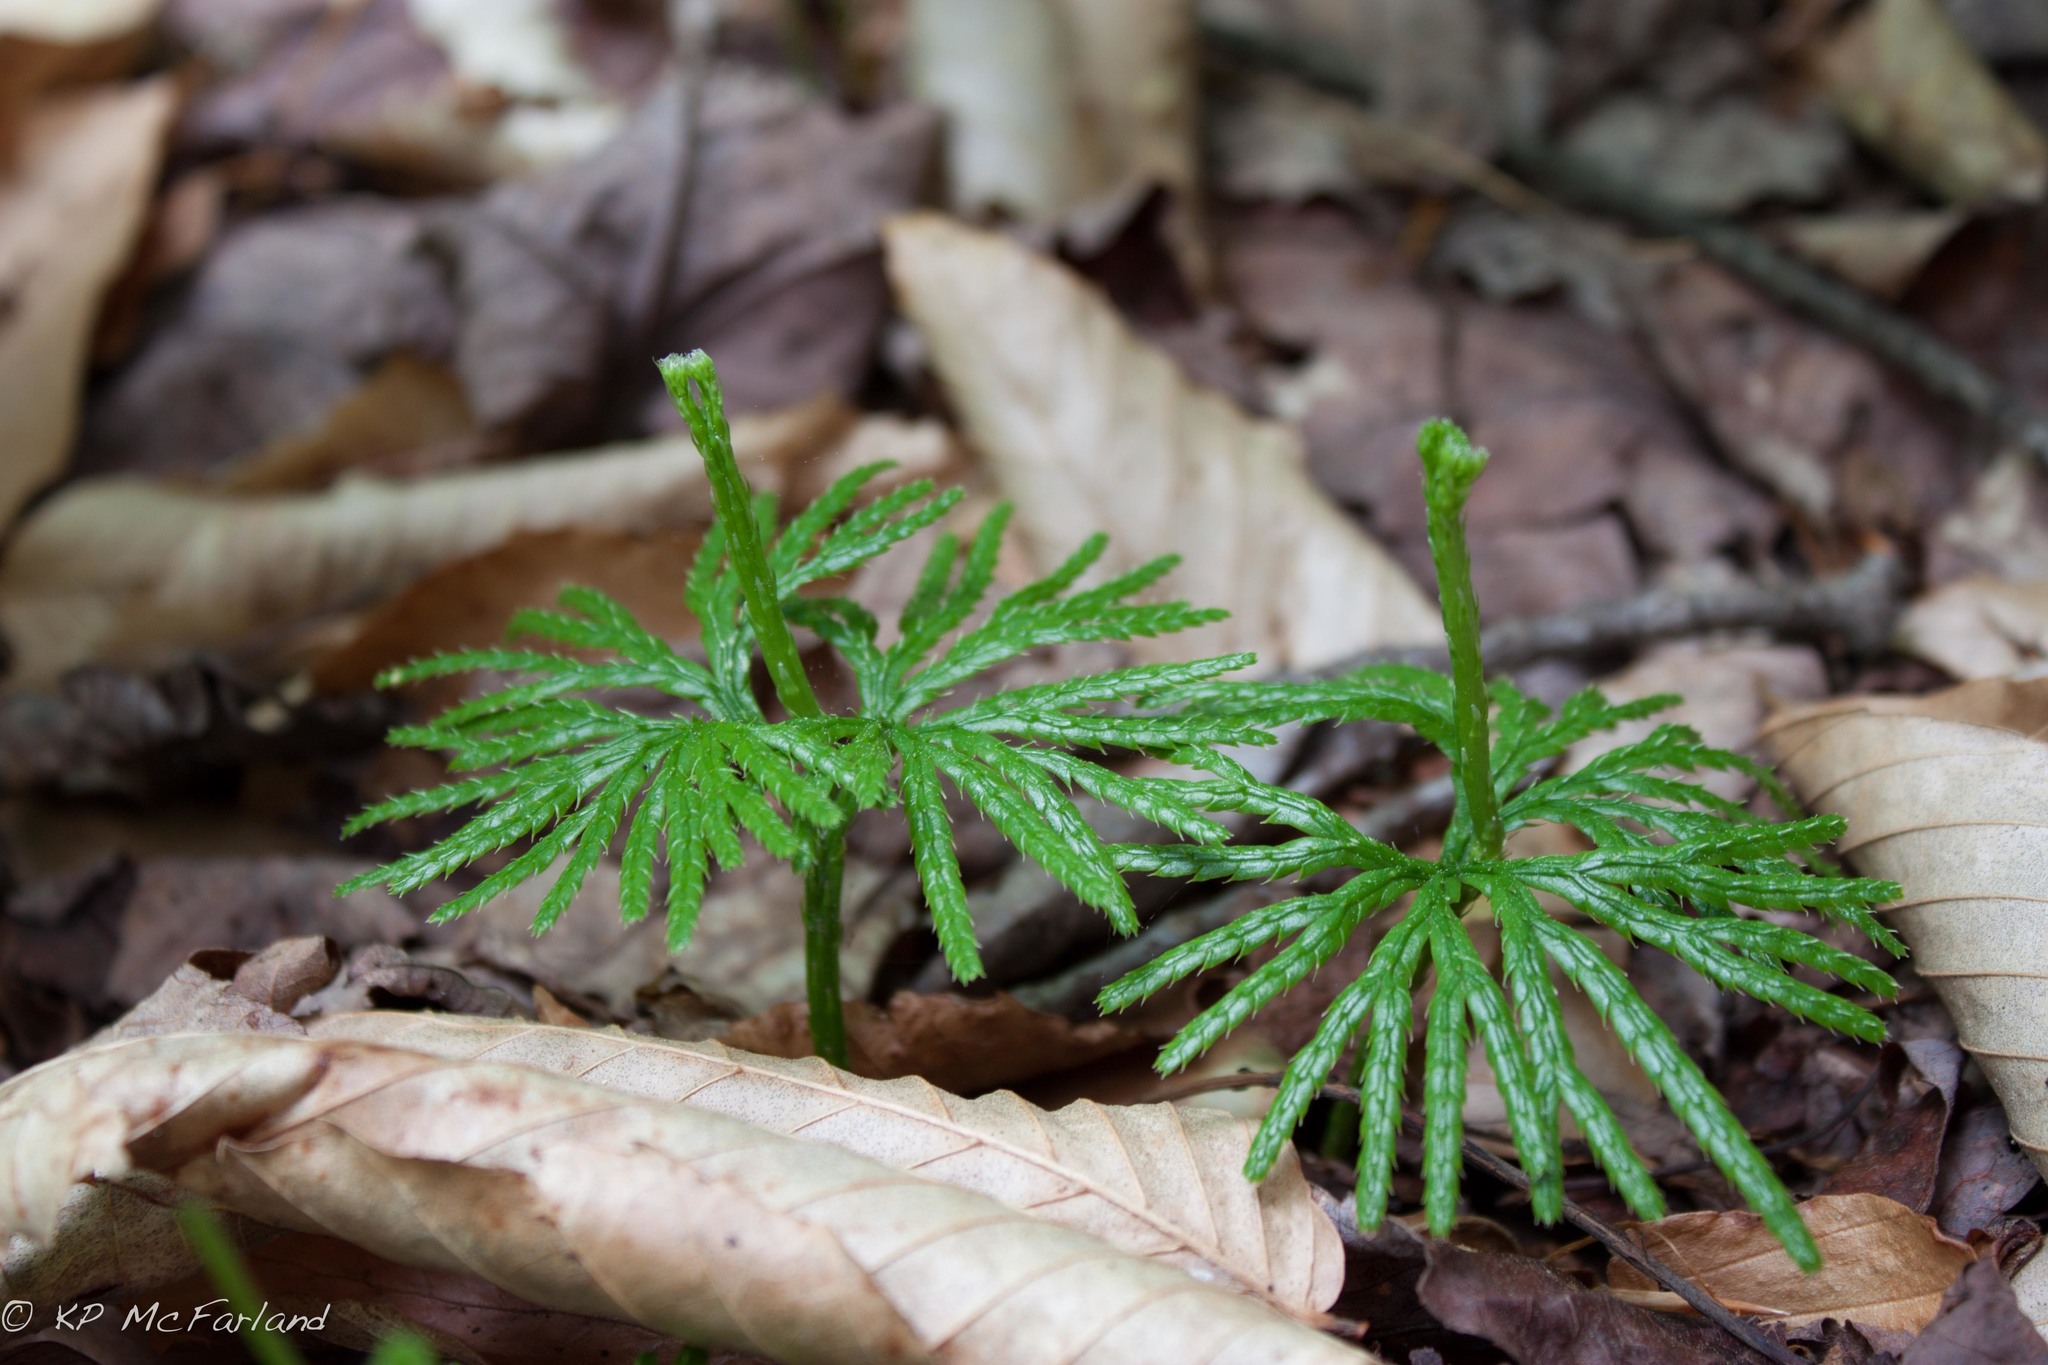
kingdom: Plantae
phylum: Tracheophyta
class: Lycopodiopsida
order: Lycopodiales
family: Lycopodiaceae
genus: Diphasiastrum
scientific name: Diphasiastrum digitatum
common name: Southern running-pine
